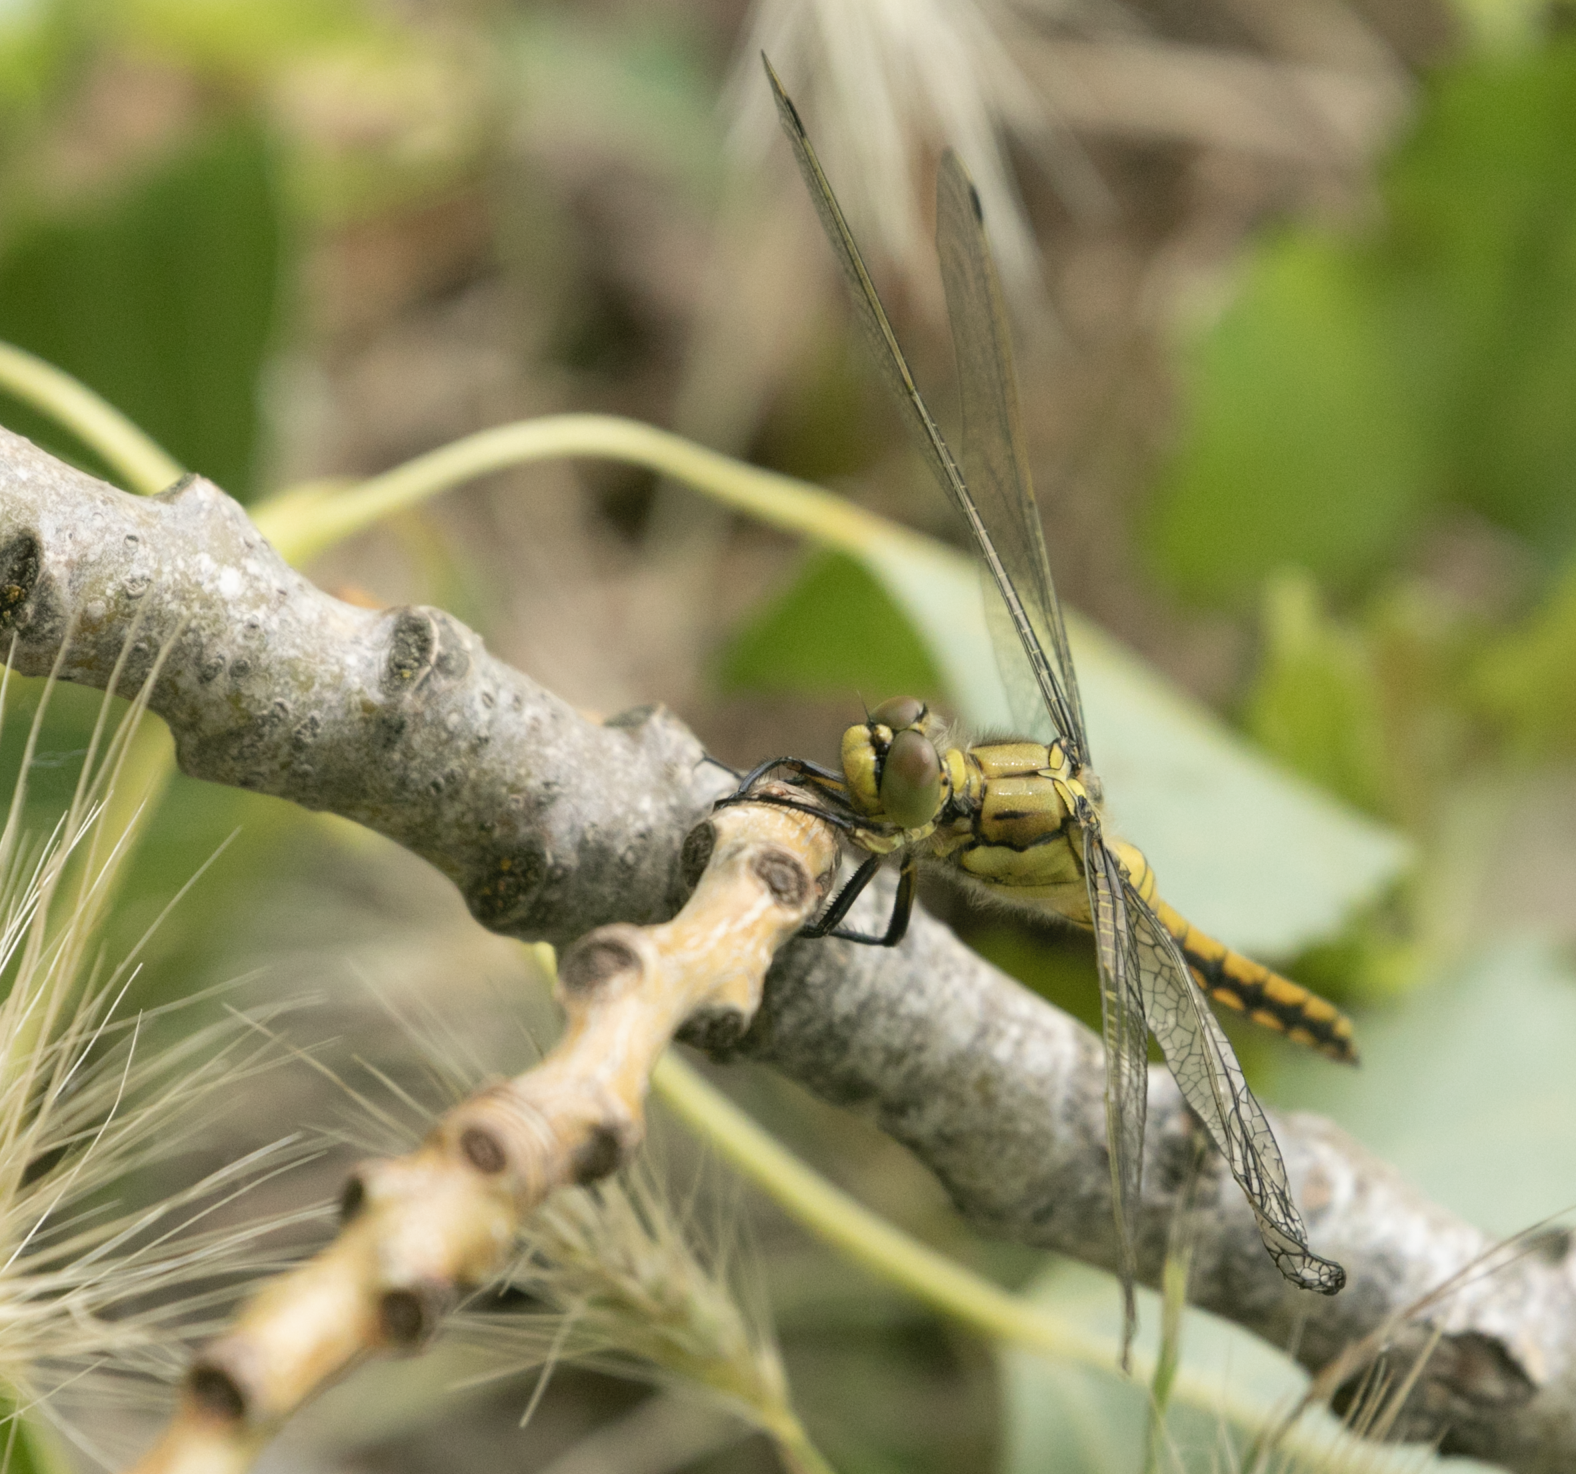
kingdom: Animalia
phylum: Arthropoda
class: Insecta
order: Odonata
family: Libellulidae
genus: Orthetrum
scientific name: Orthetrum cancellatum
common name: Black-tailed skimmer
